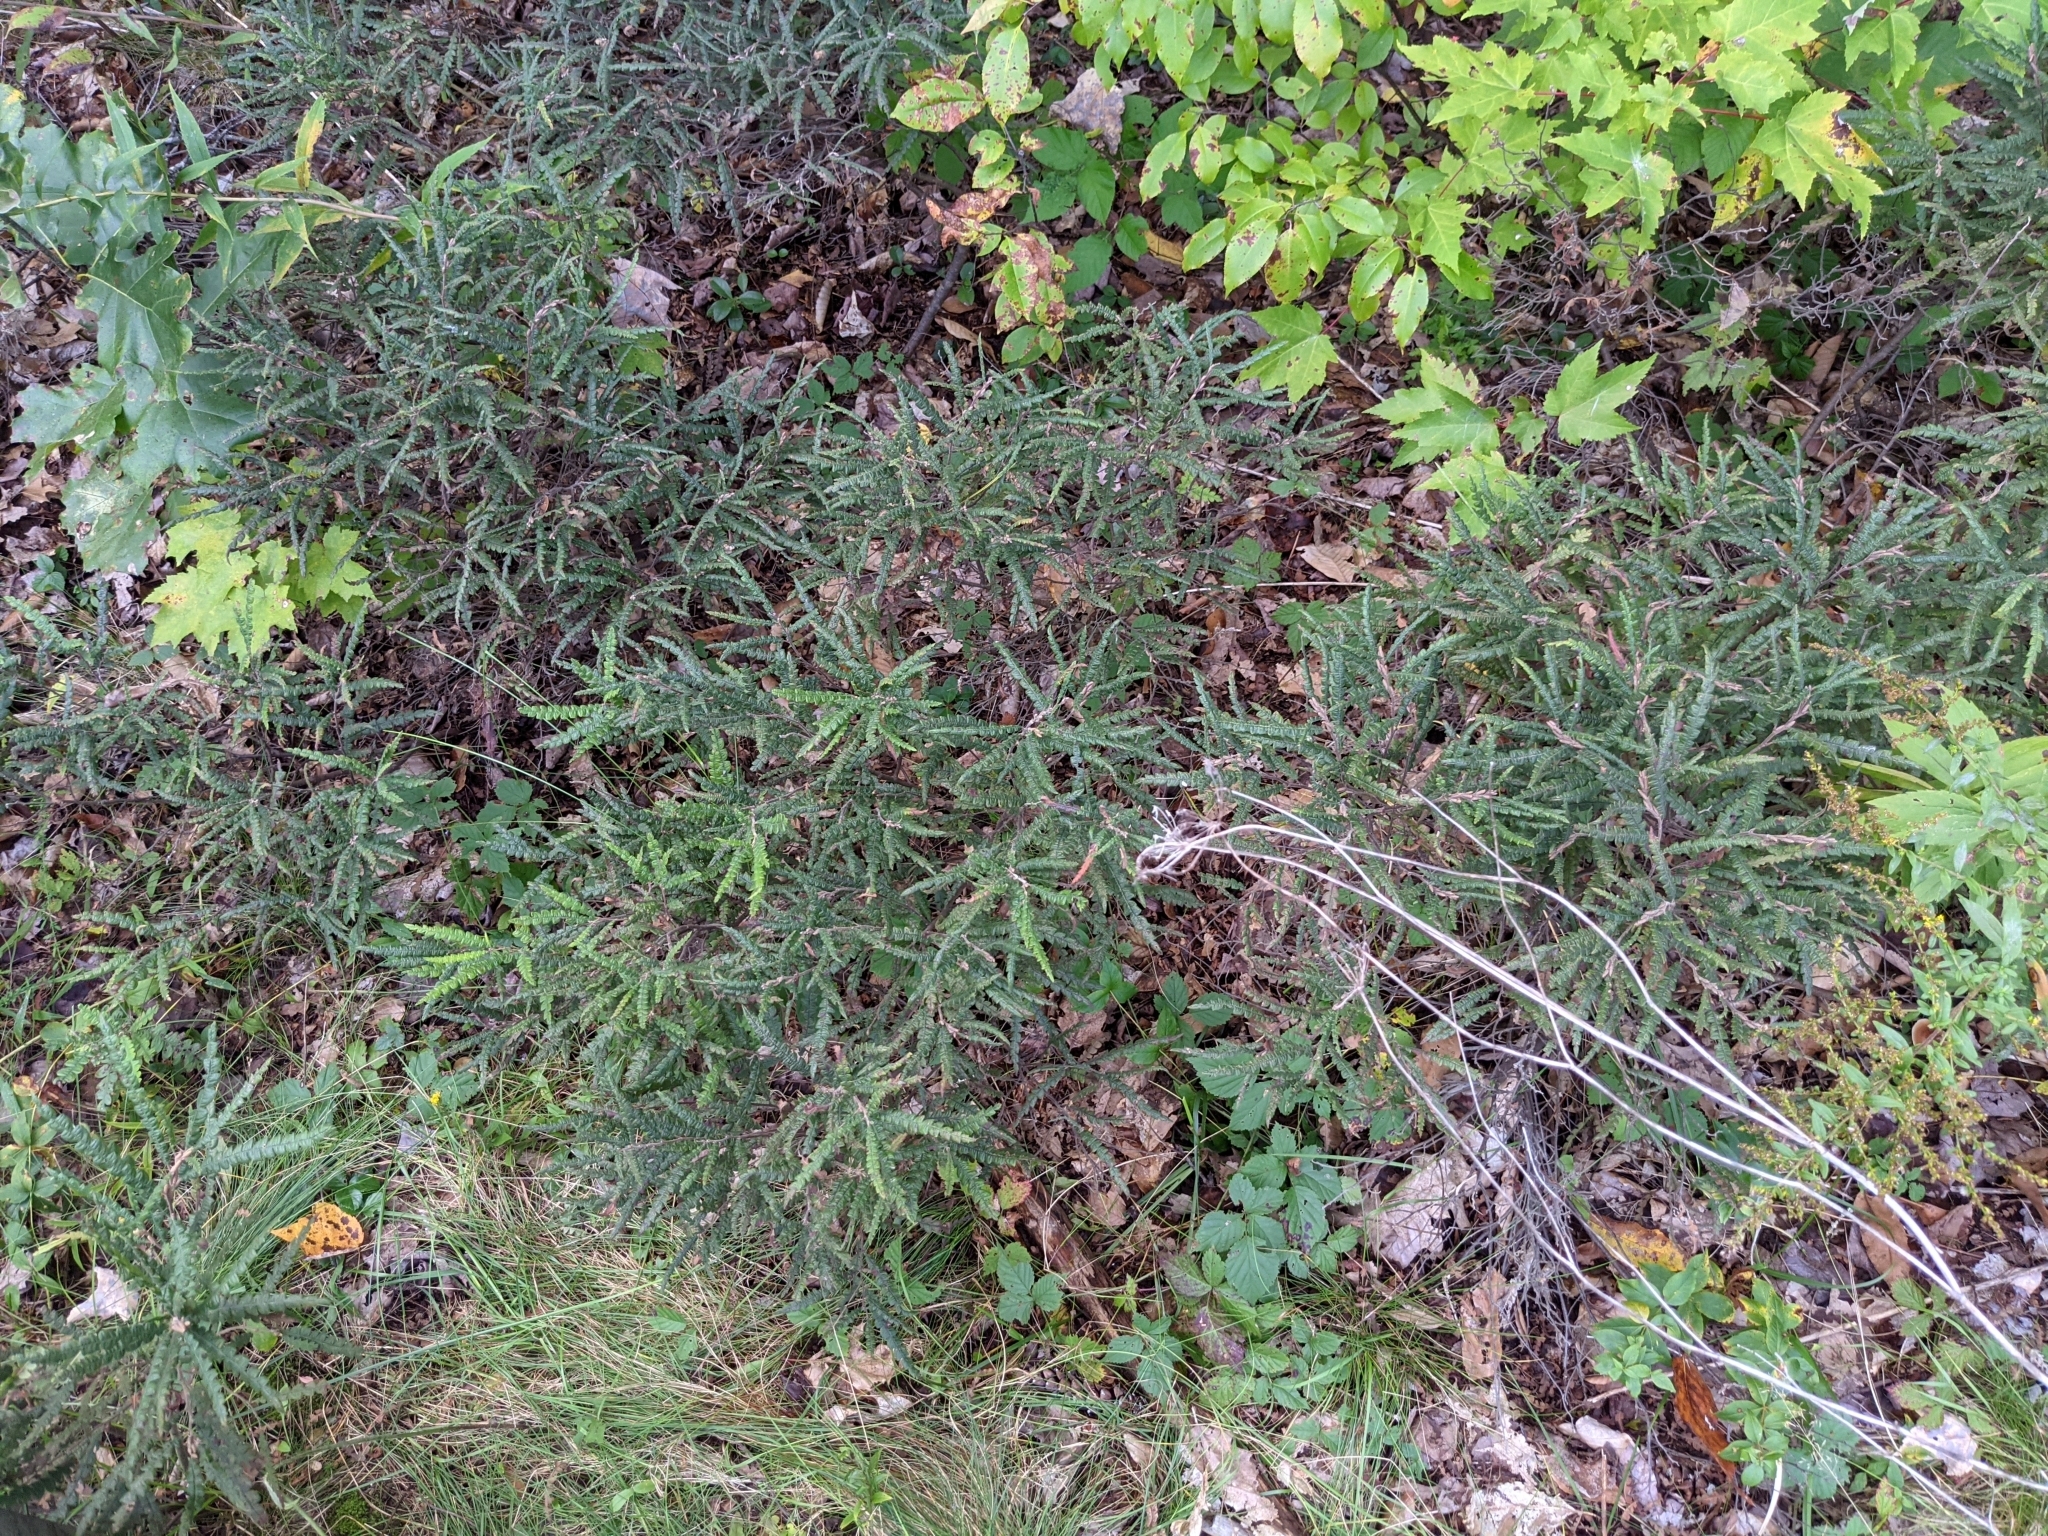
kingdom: Plantae
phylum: Tracheophyta
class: Magnoliopsida
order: Fagales
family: Myricaceae
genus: Comptonia
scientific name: Comptonia peregrina
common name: Sweet-fern
